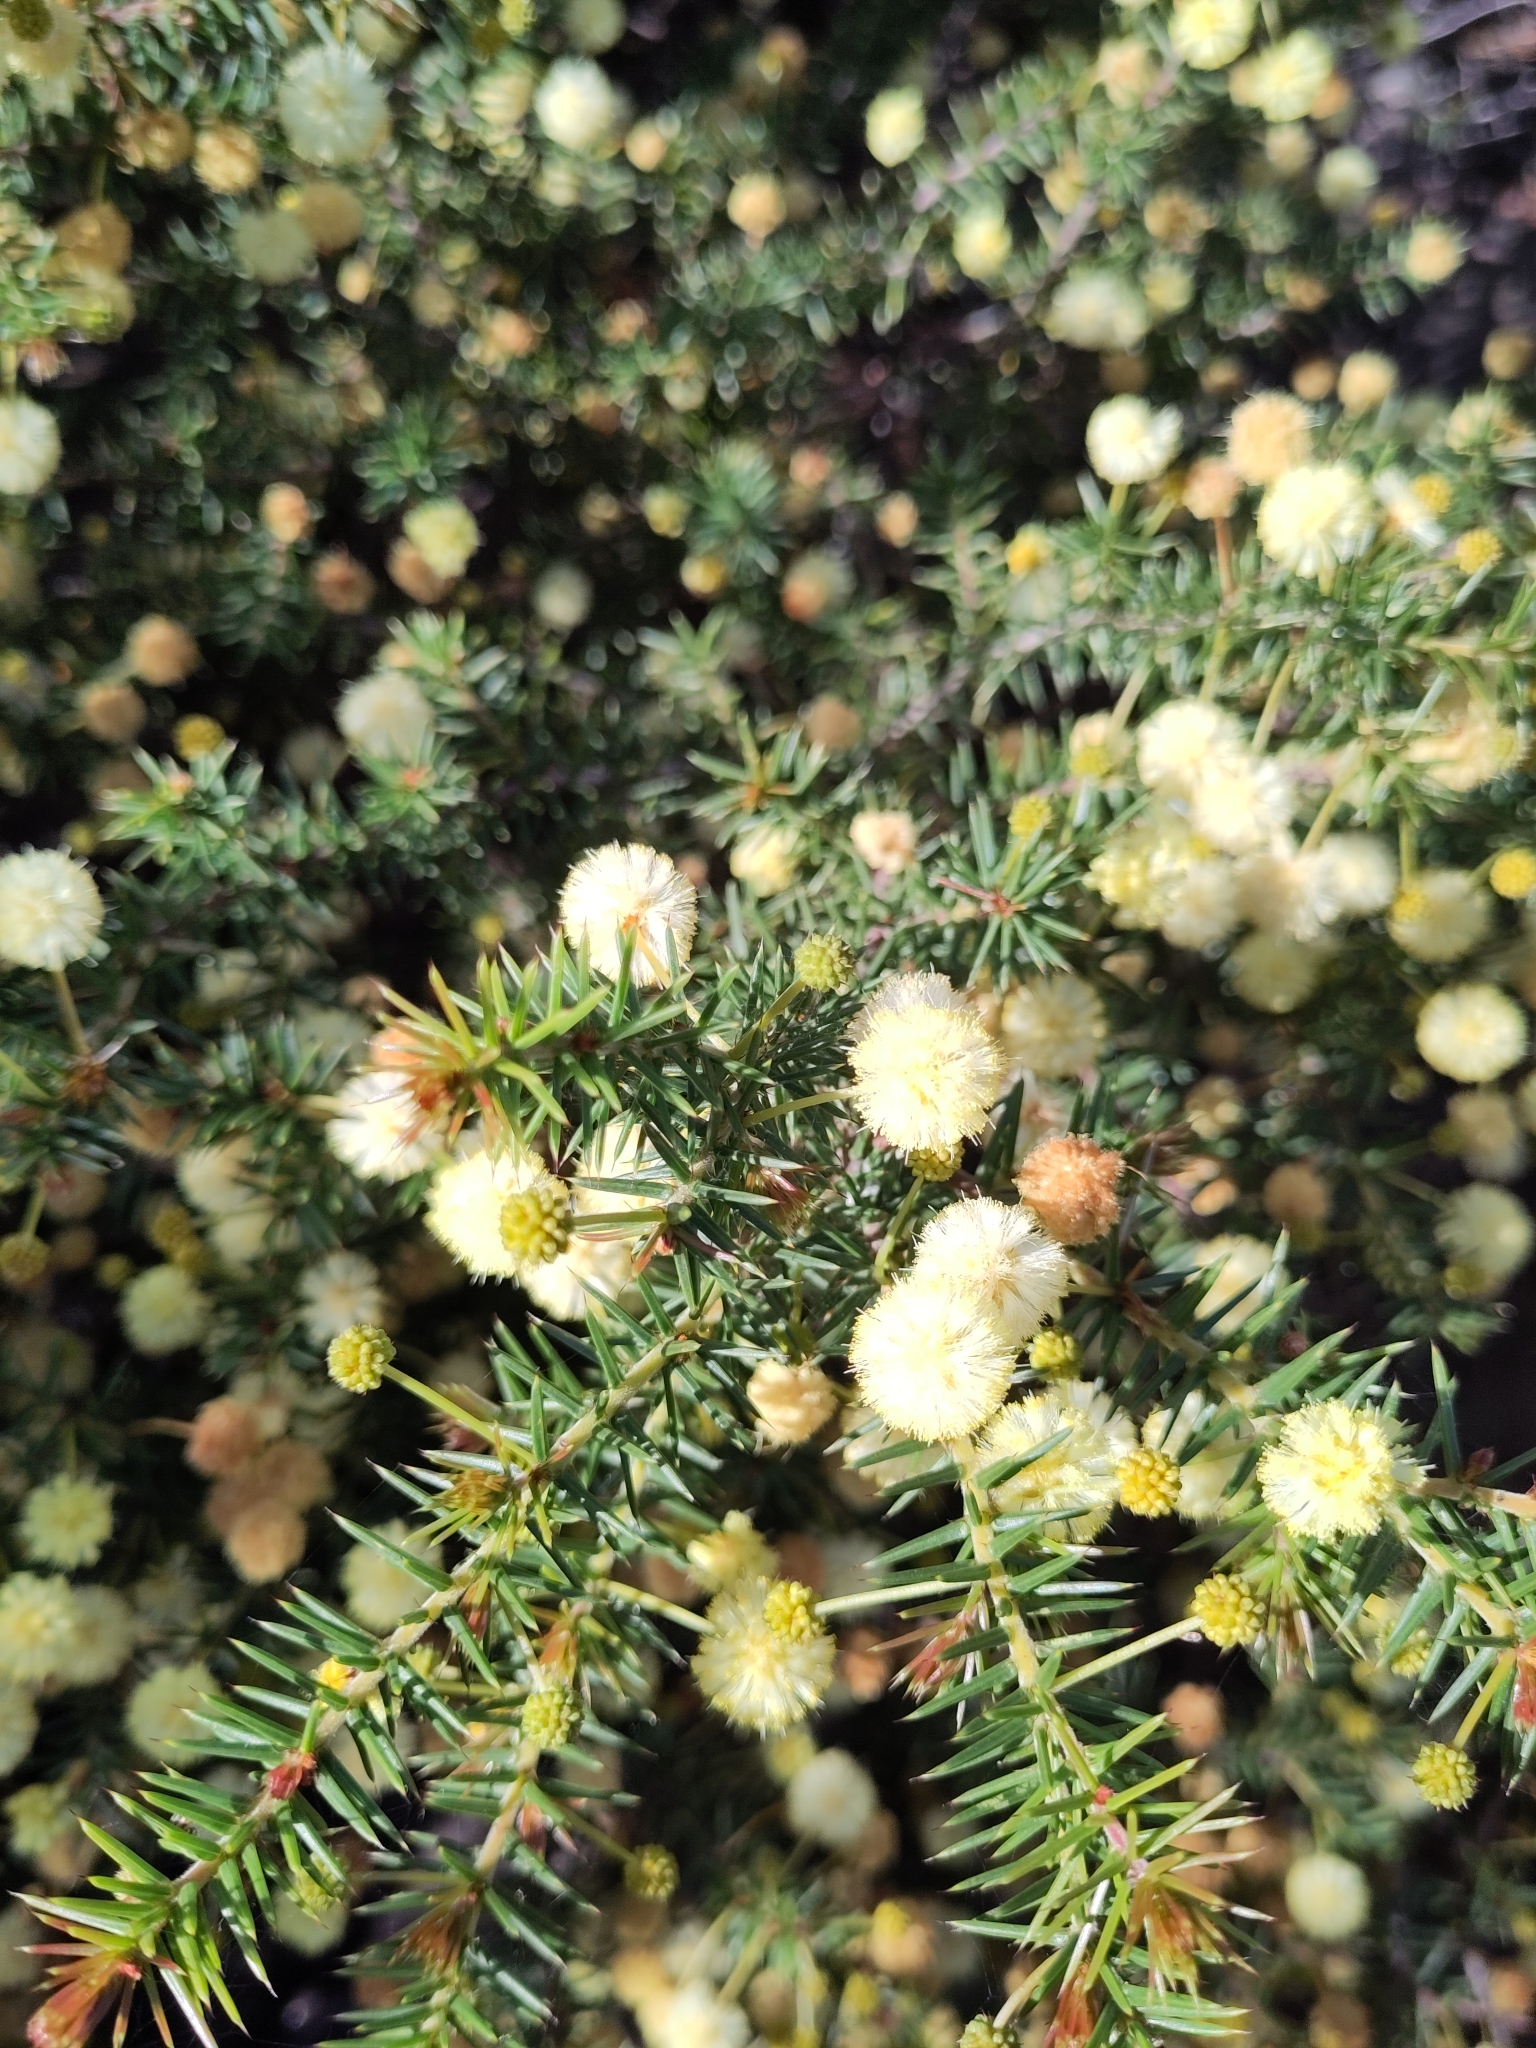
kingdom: Plantae
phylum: Tracheophyta
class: Magnoliopsida
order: Fabales
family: Fabaceae
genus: Acacia
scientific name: Acacia ulicifolia
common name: Juniper wattle
